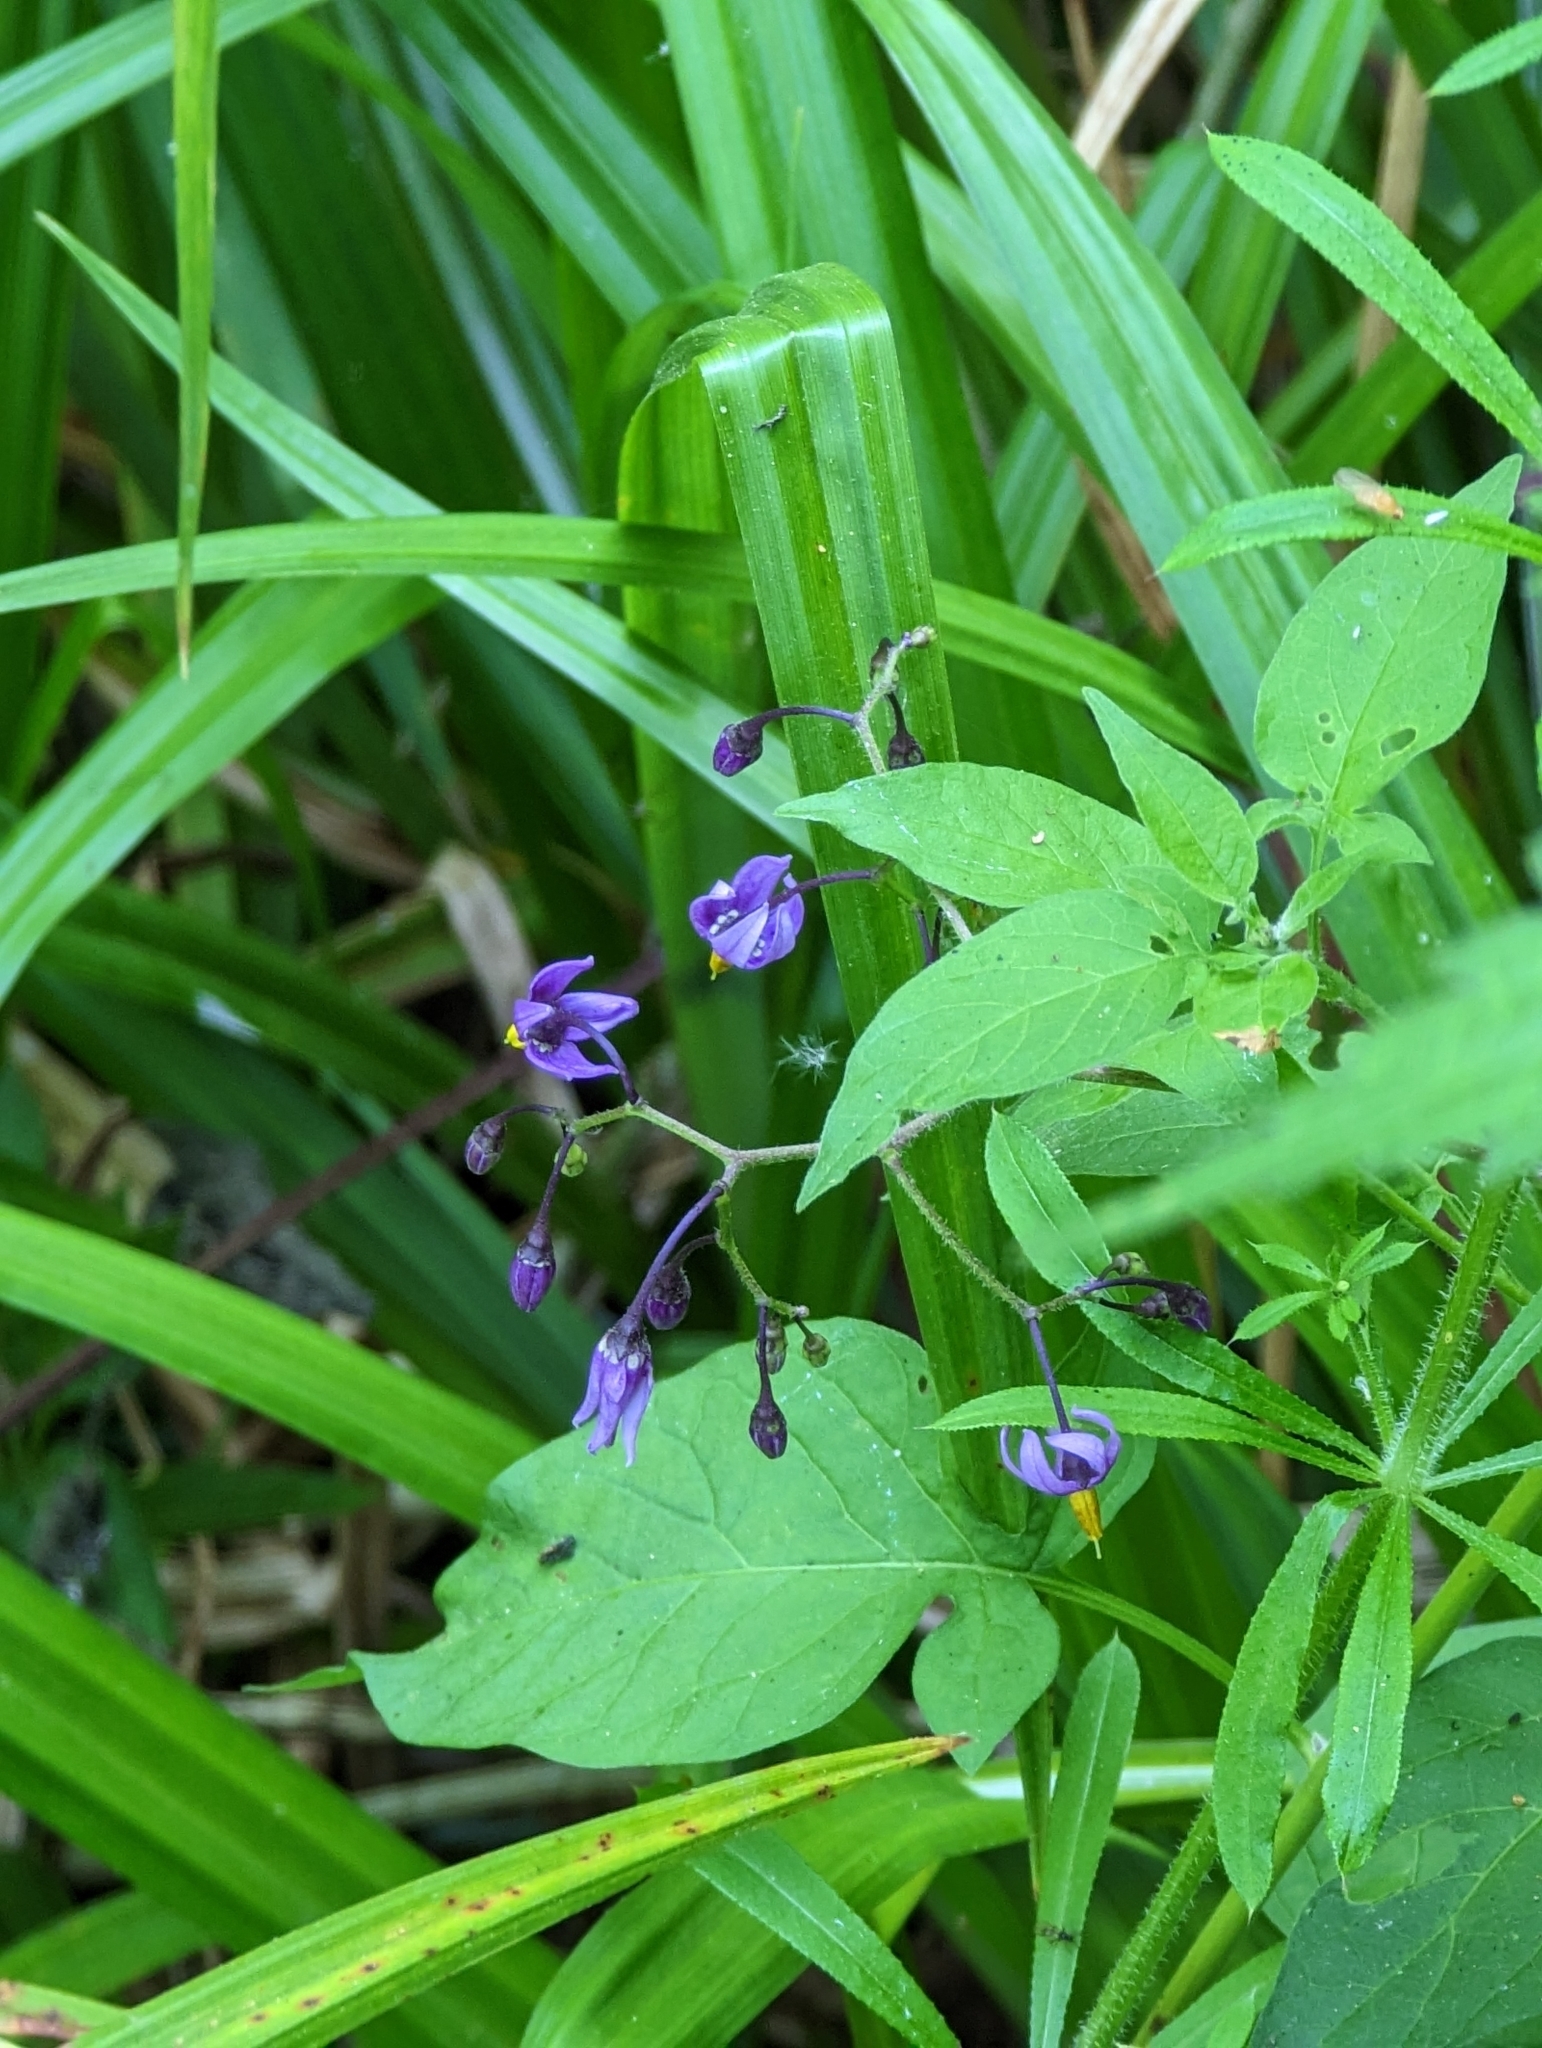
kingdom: Plantae
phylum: Tracheophyta
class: Magnoliopsida
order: Solanales
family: Solanaceae
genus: Solanum
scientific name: Solanum dulcamara
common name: Climbing nightshade
